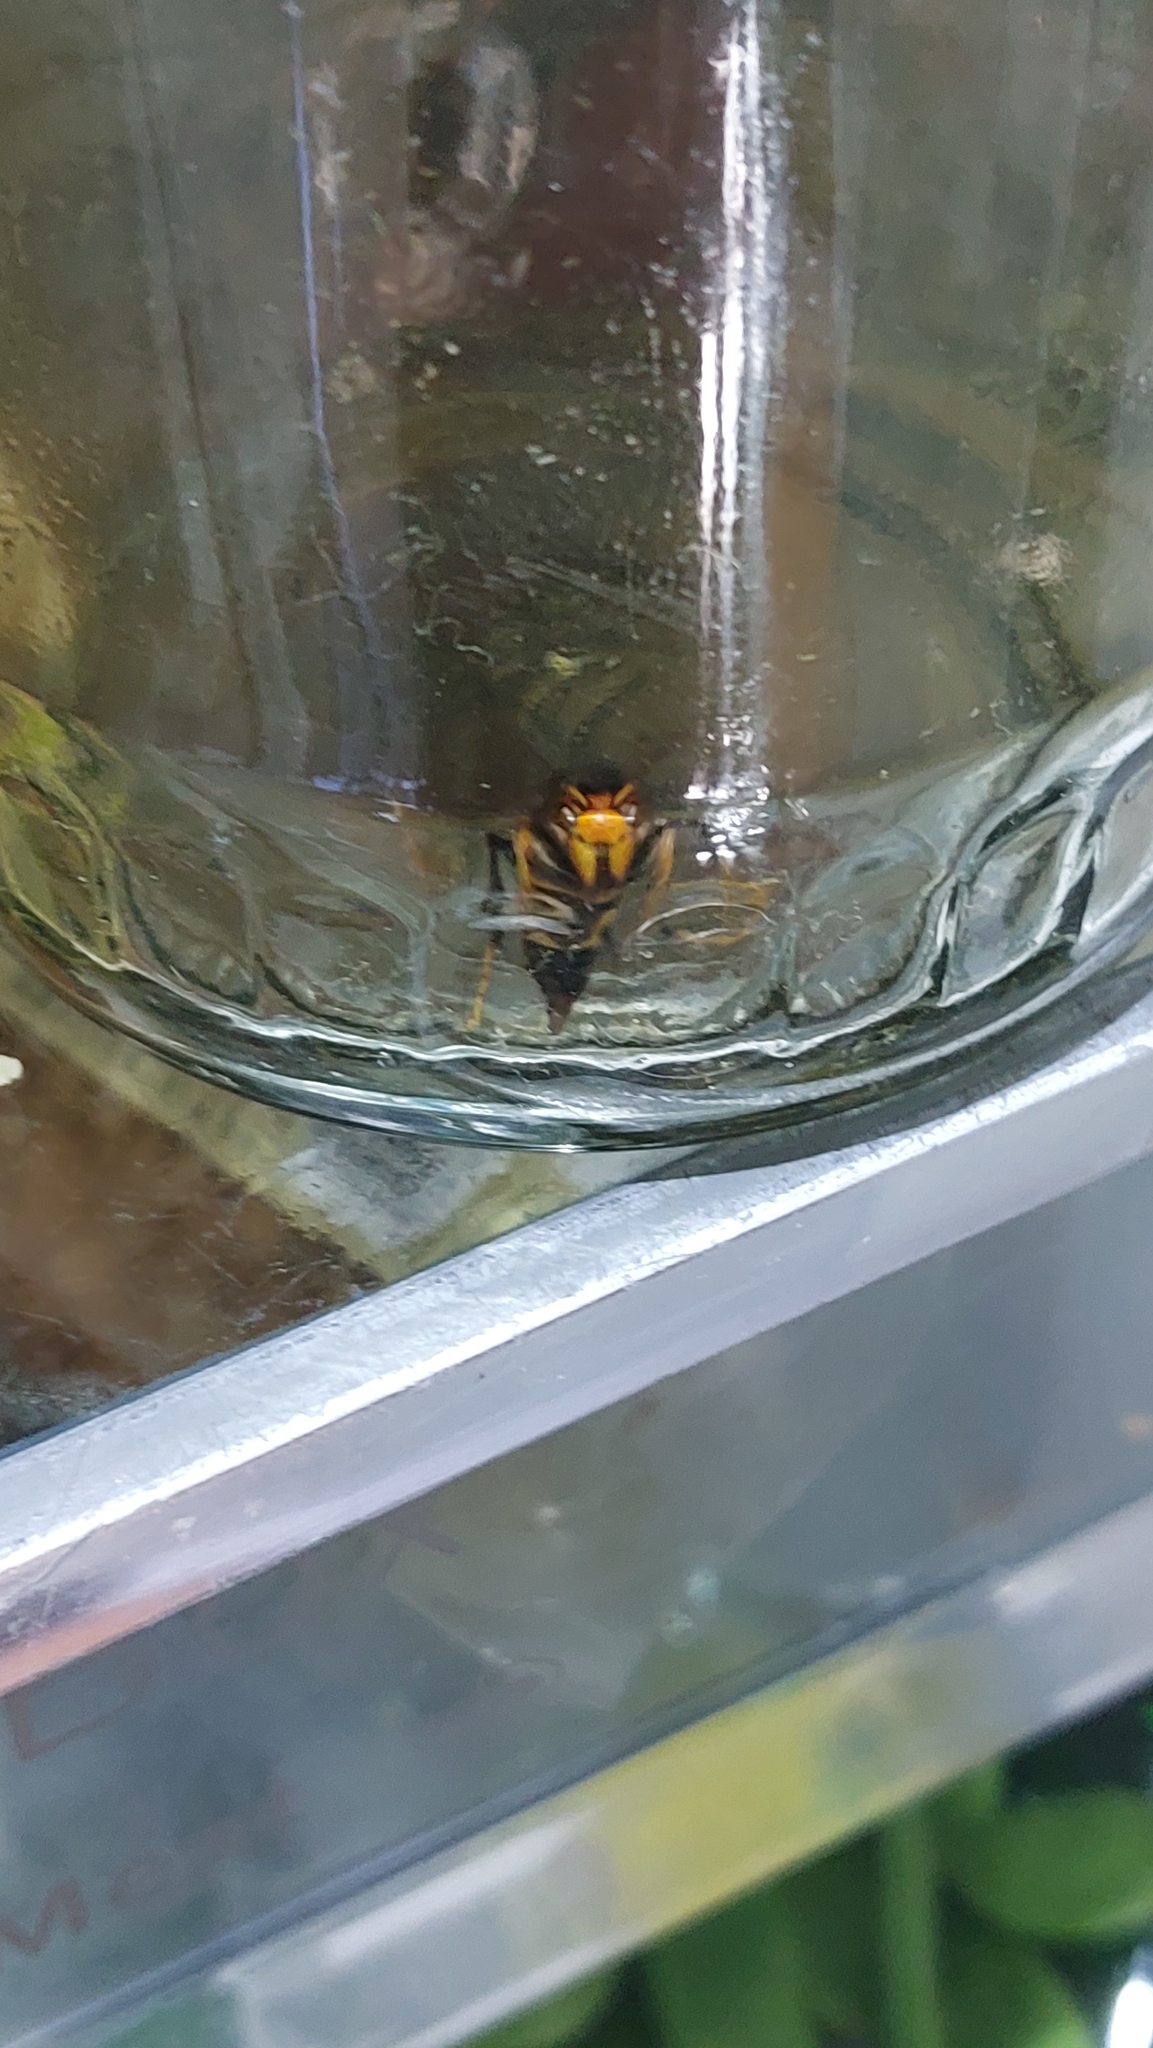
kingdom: Animalia
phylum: Arthropoda
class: Insecta
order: Hymenoptera
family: Vespidae
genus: Vespa
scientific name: Vespa velutina
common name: Asian hornet
